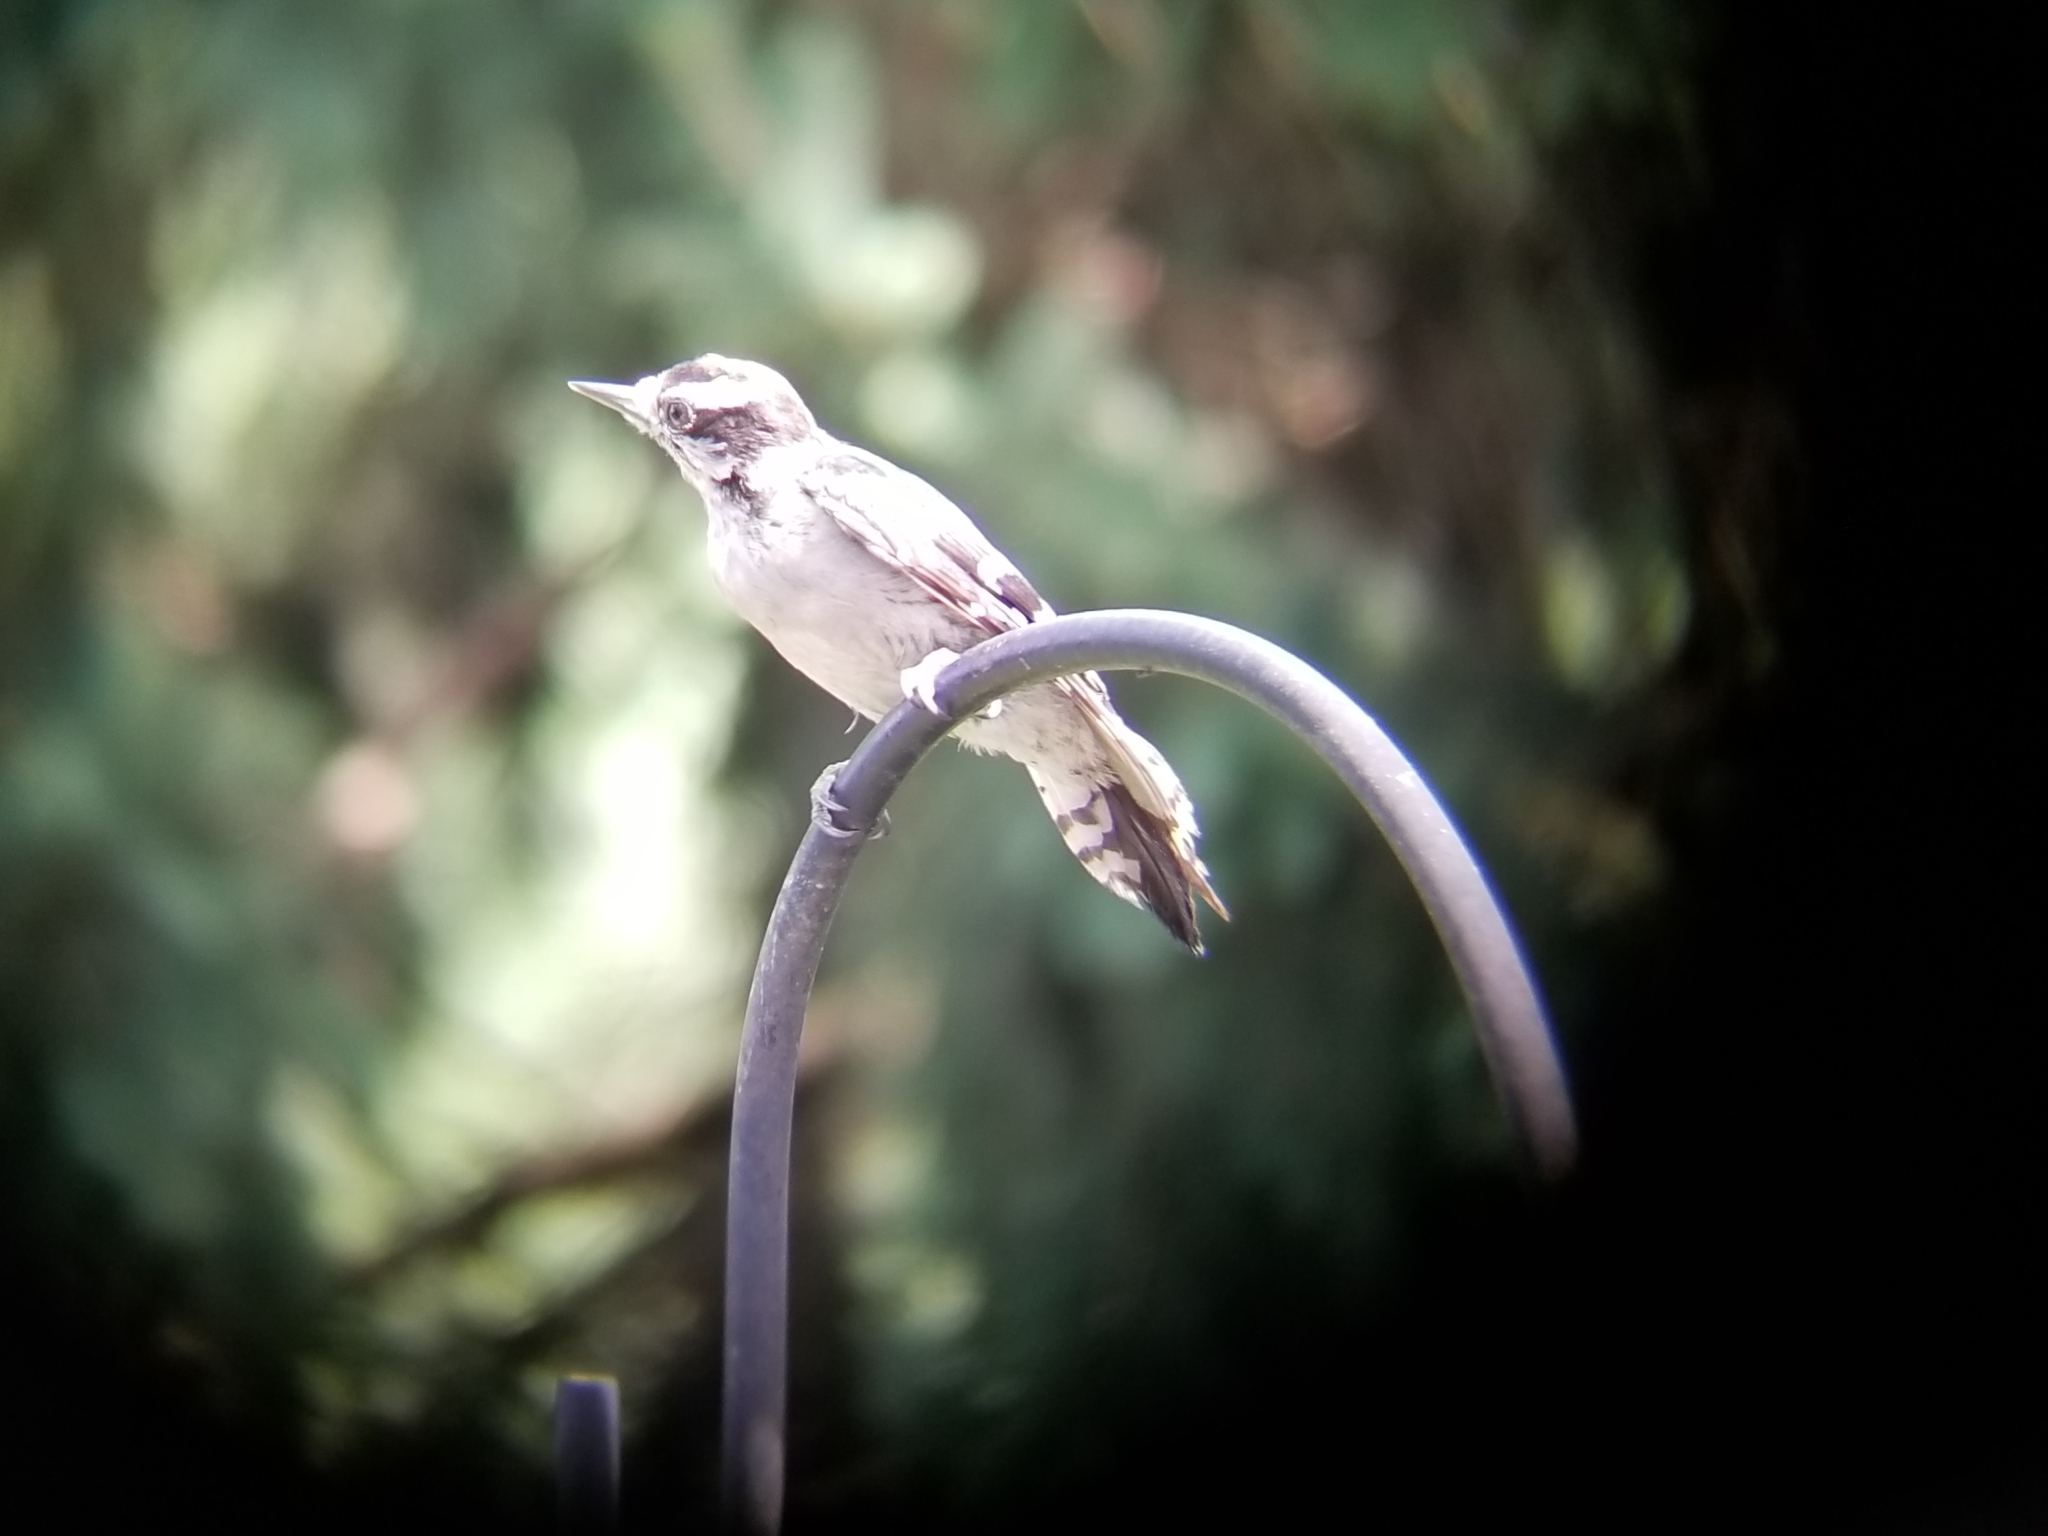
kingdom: Animalia
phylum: Chordata
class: Aves
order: Piciformes
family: Picidae
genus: Dryobates
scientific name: Dryobates pubescens
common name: Downy woodpecker
